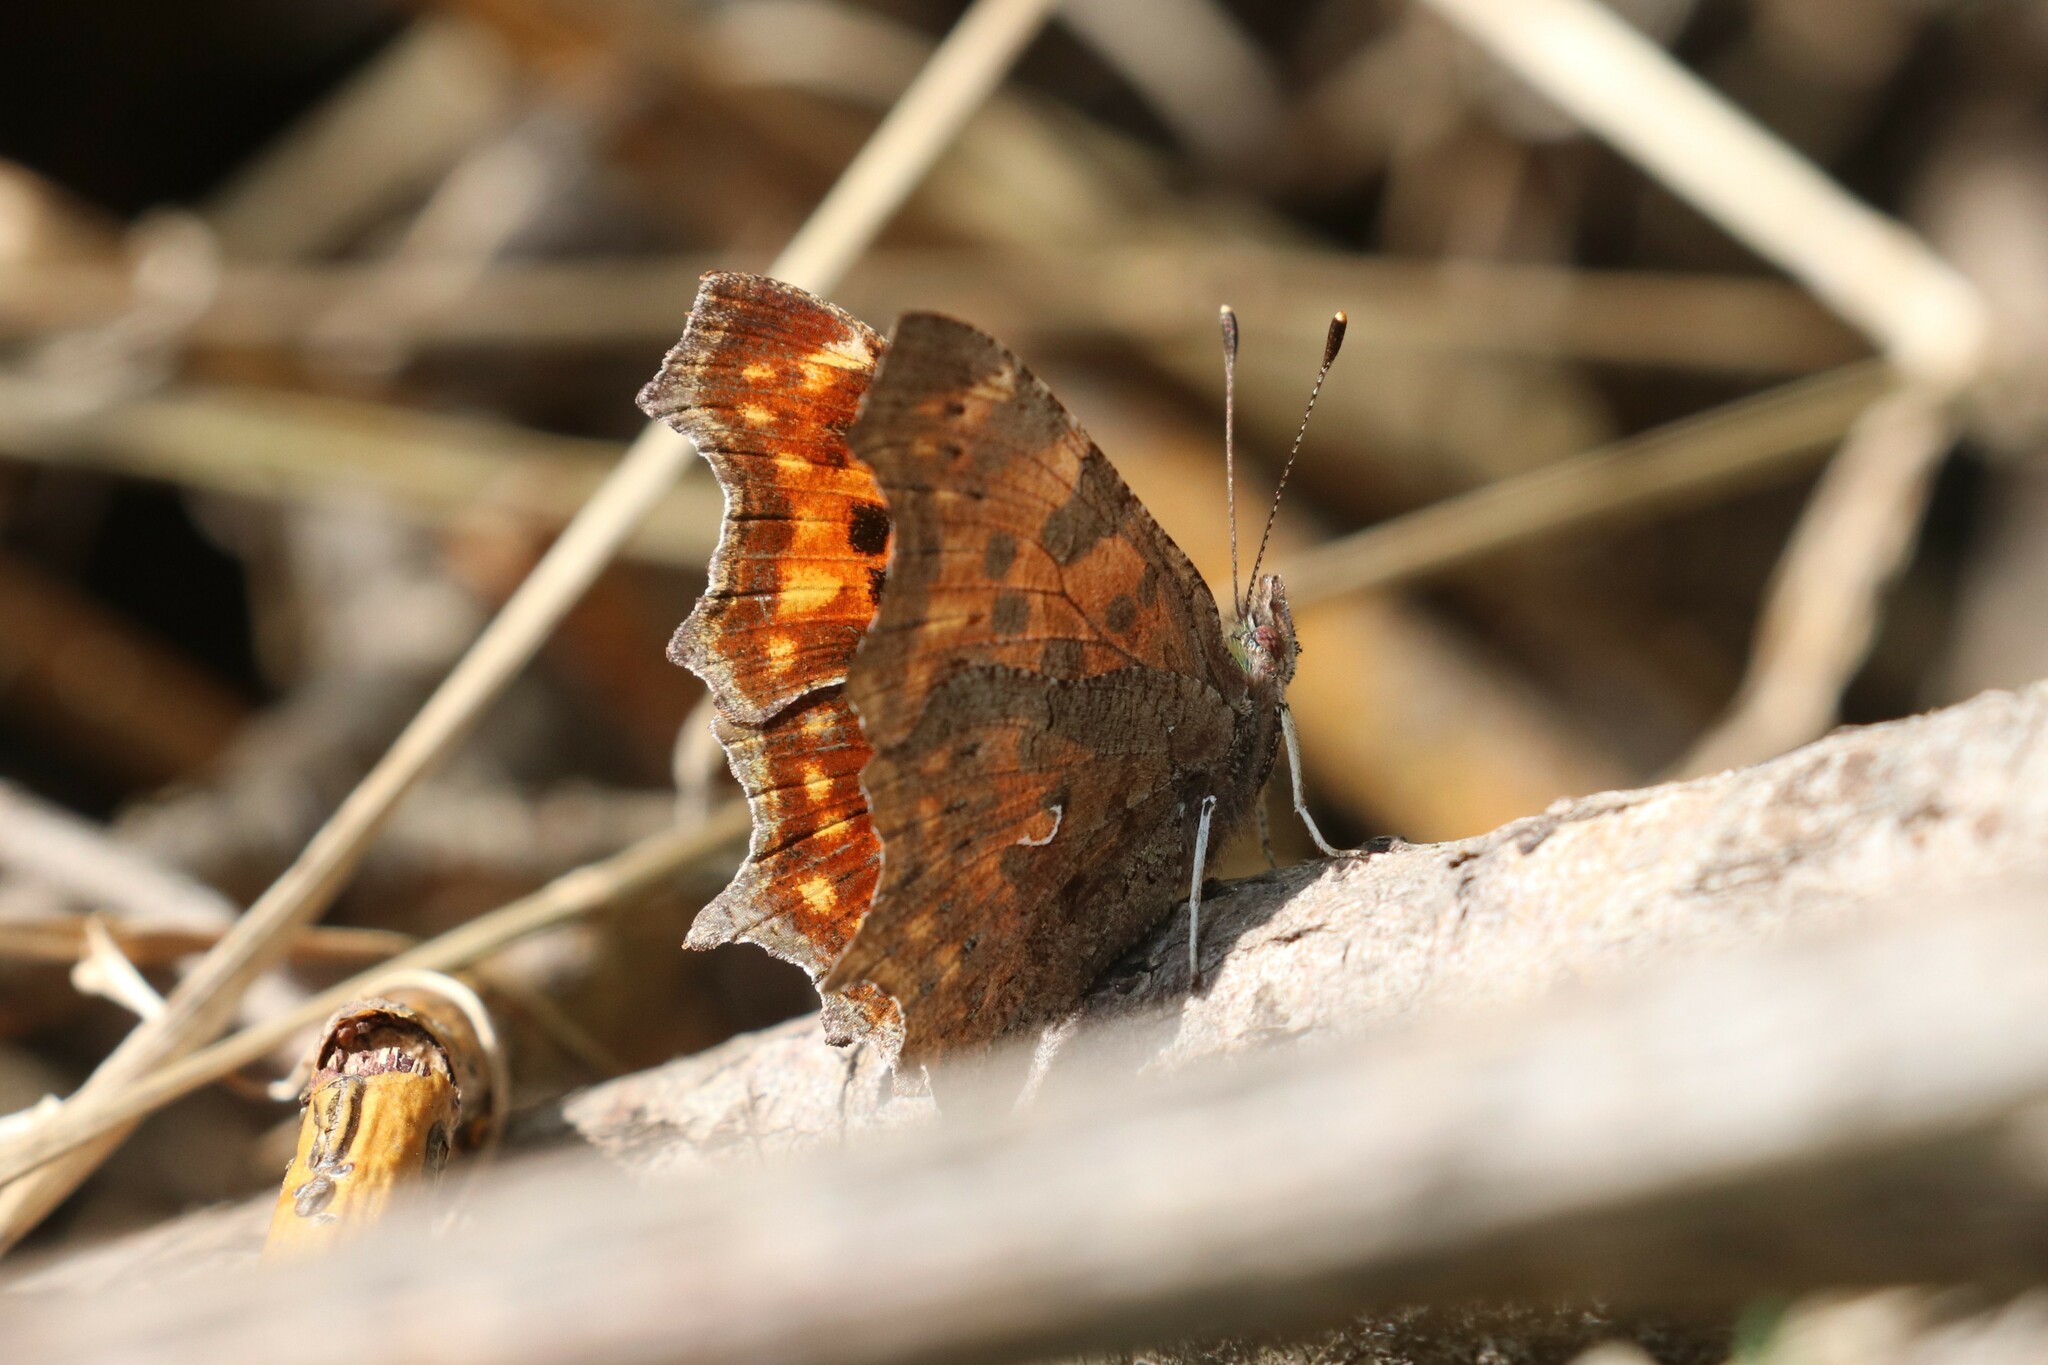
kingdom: Animalia
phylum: Arthropoda
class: Insecta
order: Lepidoptera
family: Nymphalidae
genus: Polygonia
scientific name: Polygonia c-album
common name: Comma
